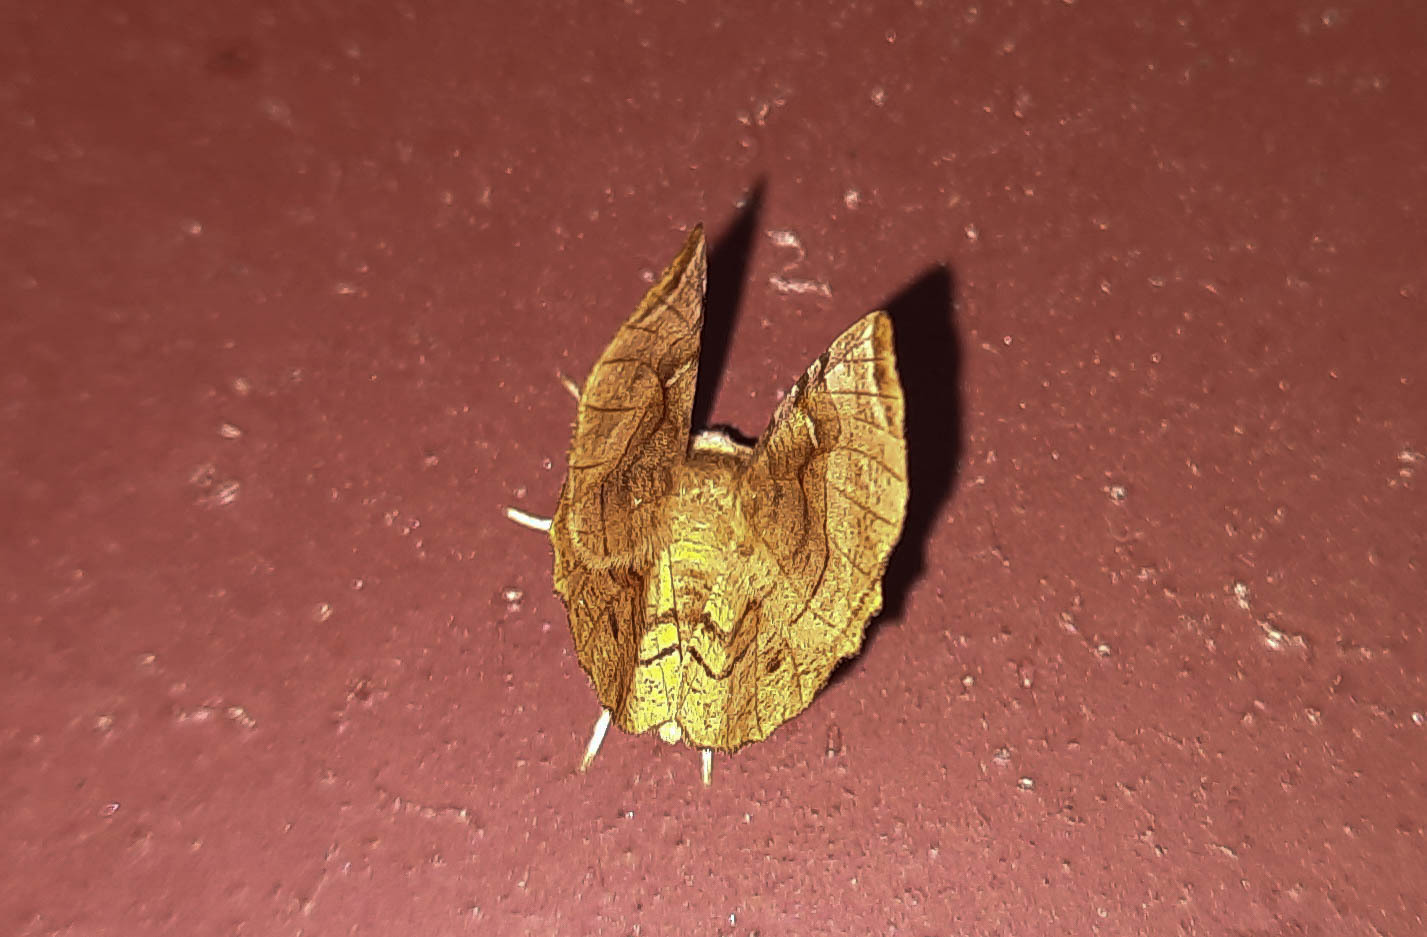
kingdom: Animalia
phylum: Arthropoda
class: Insecta
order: Lepidoptera
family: Geometridae
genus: Selenia
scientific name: Selenia dentaria
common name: Early thorn
